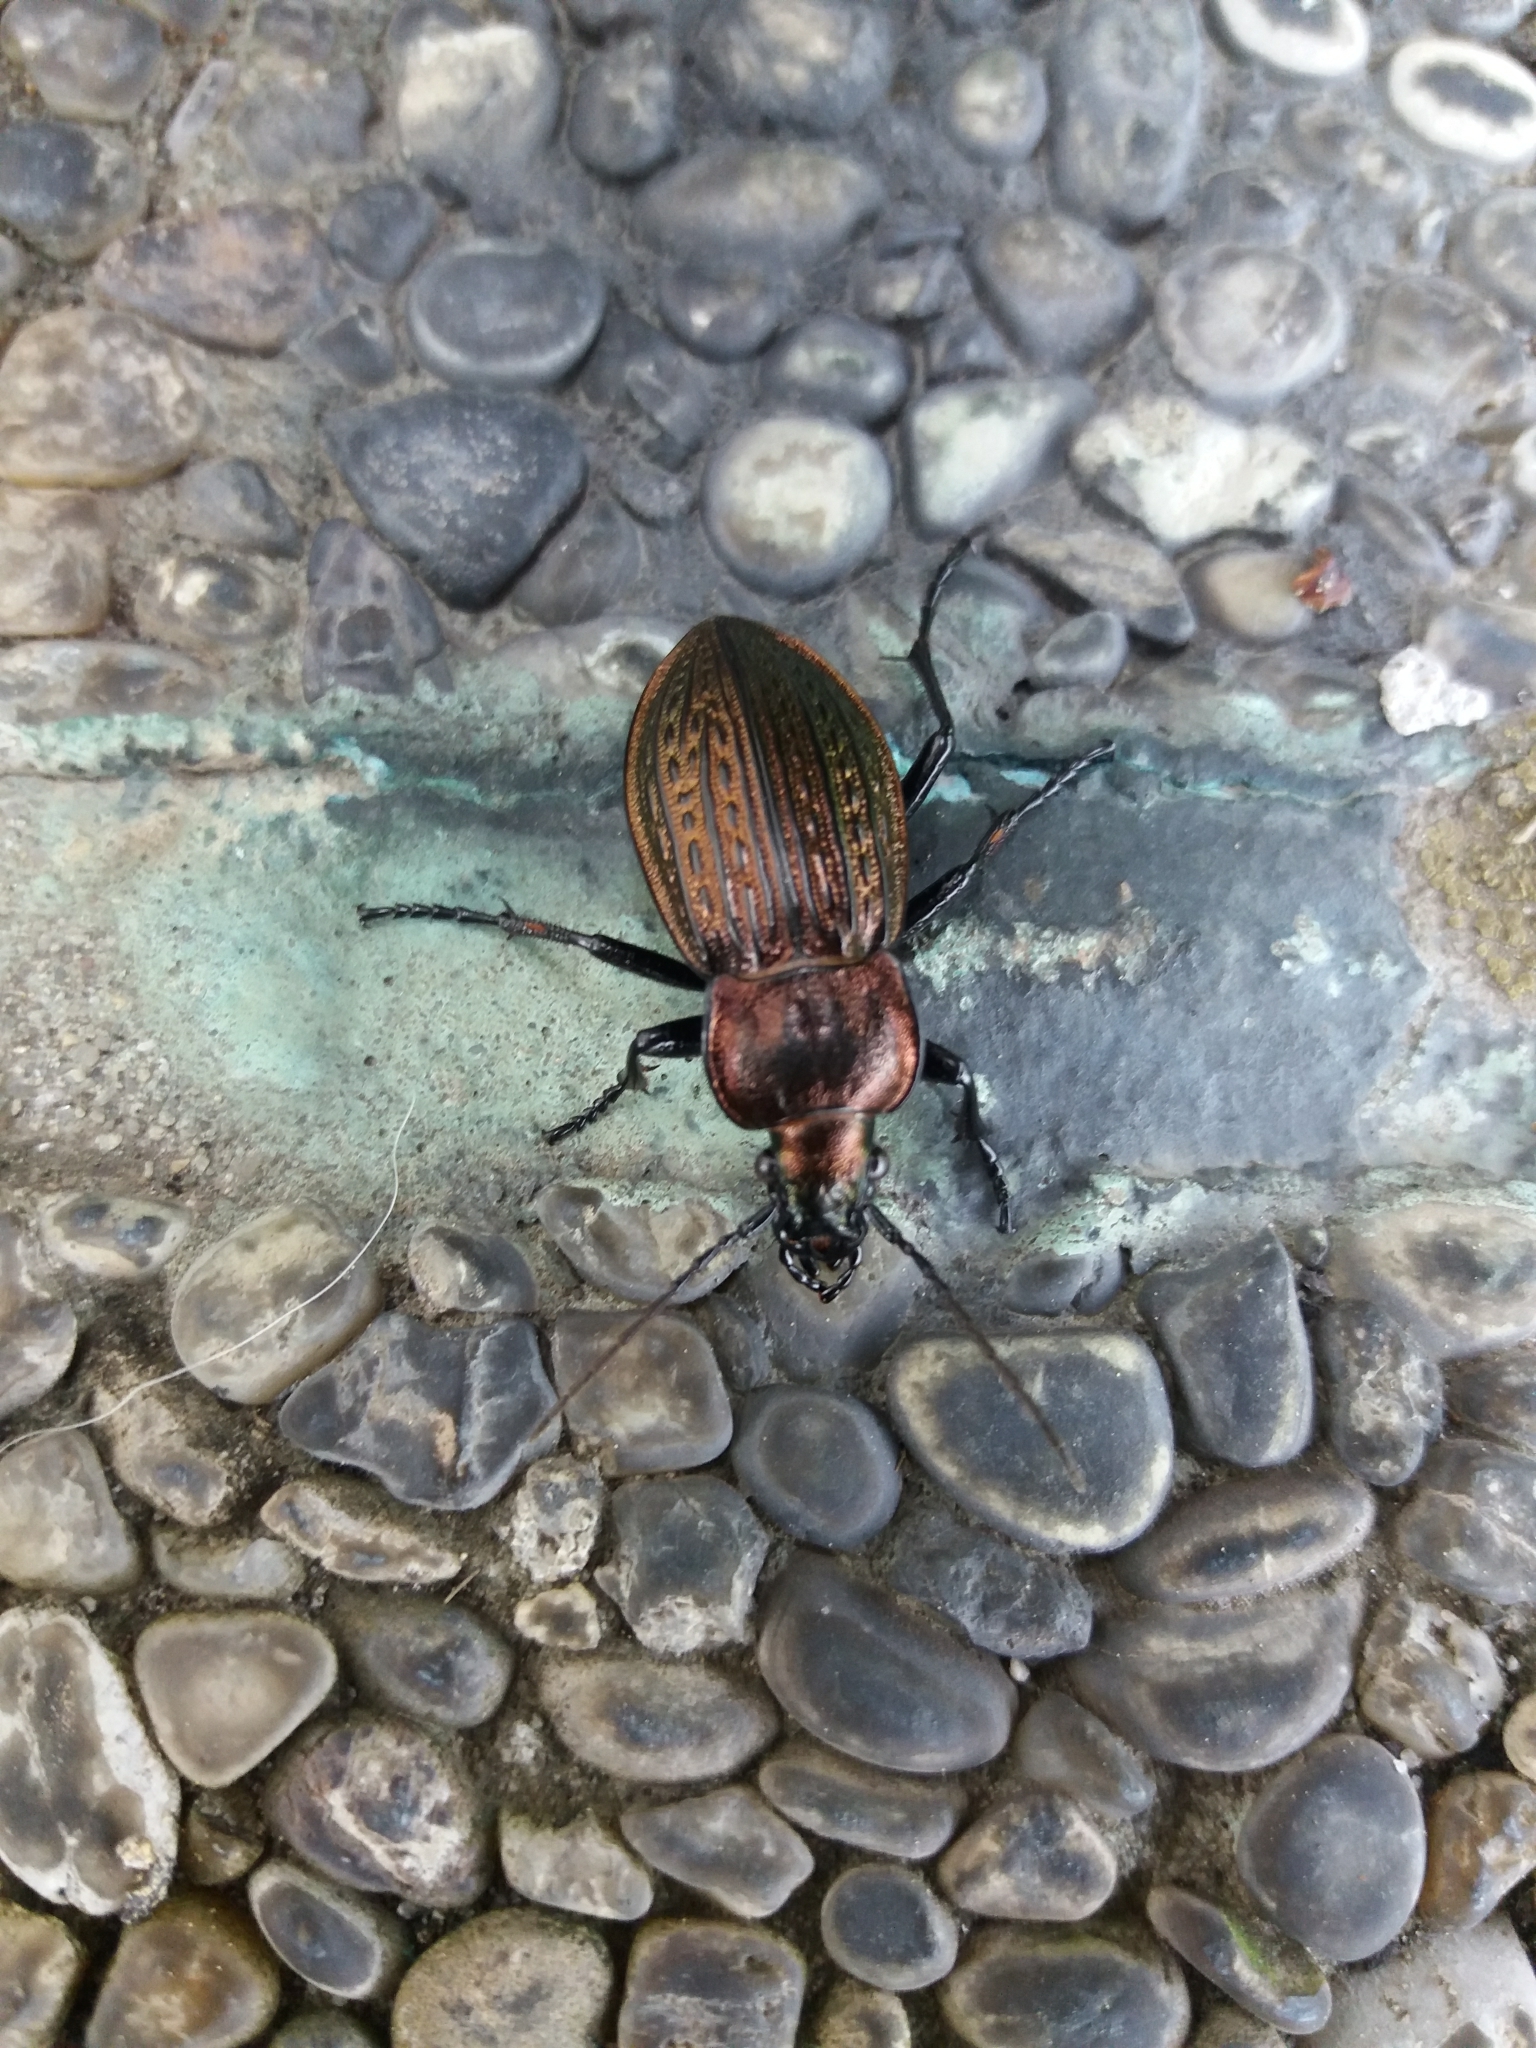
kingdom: Animalia
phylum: Arthropoda
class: Insecta
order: Coleoptera
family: Carabidae
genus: Carabus
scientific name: Carabus ulrichii
